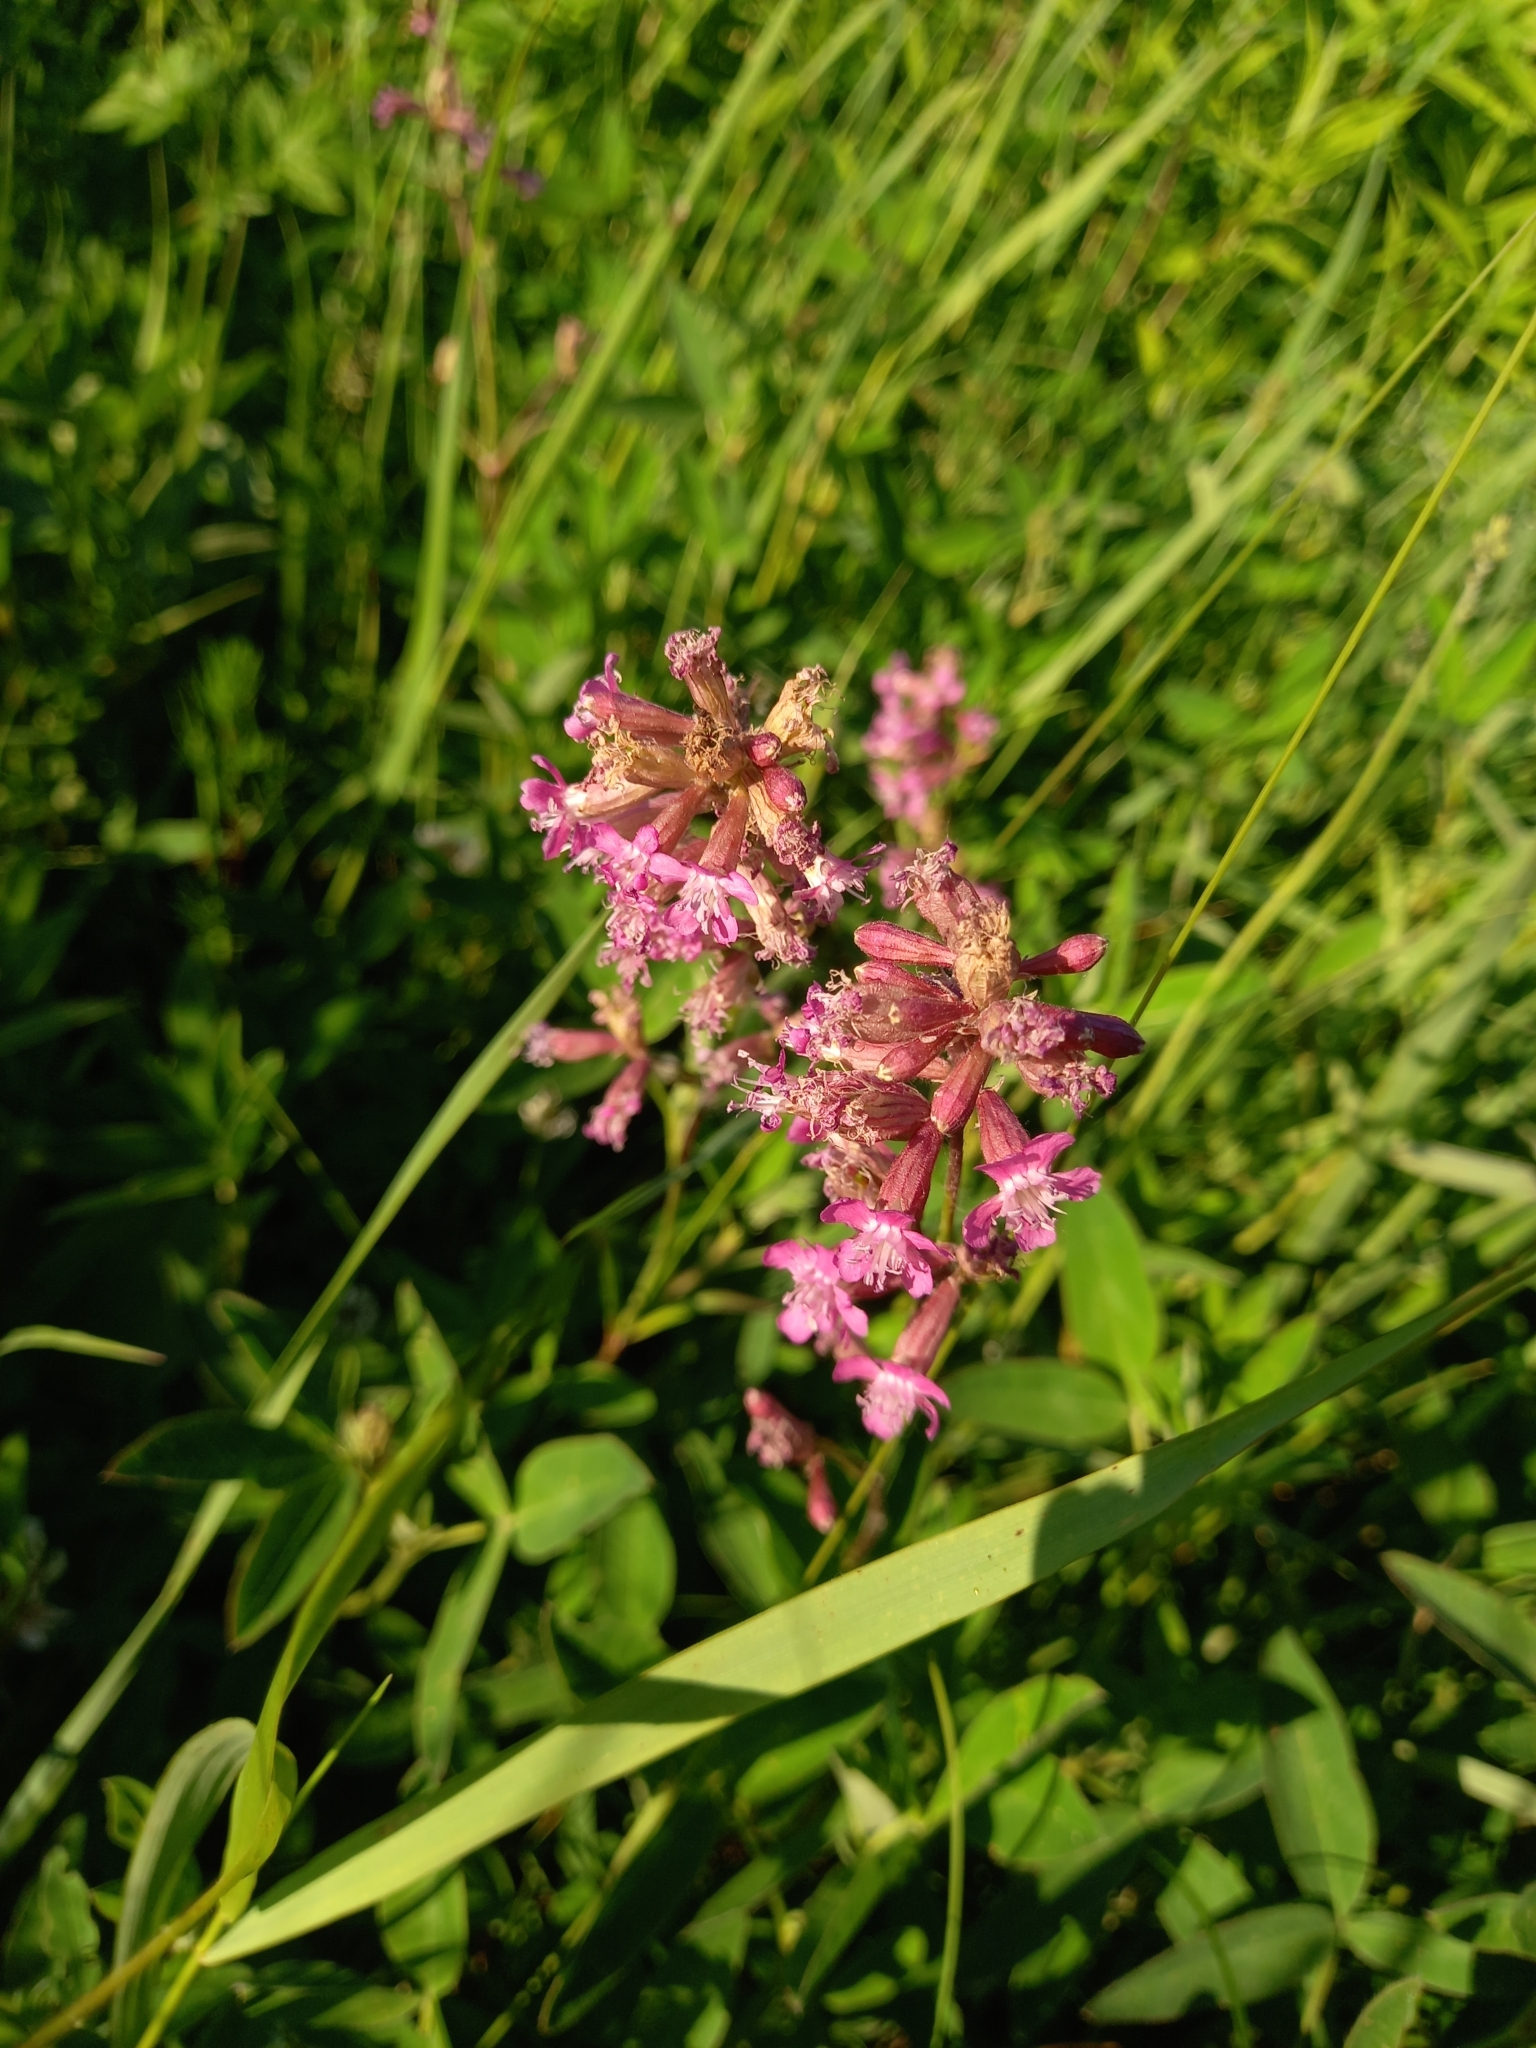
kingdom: Plantae
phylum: Tracheophyta
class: Magnoliopsida
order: Caryophyllales
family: Caryophyllaceae
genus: Viscaria
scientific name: Viscaria vulgaris
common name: Clammy campion
